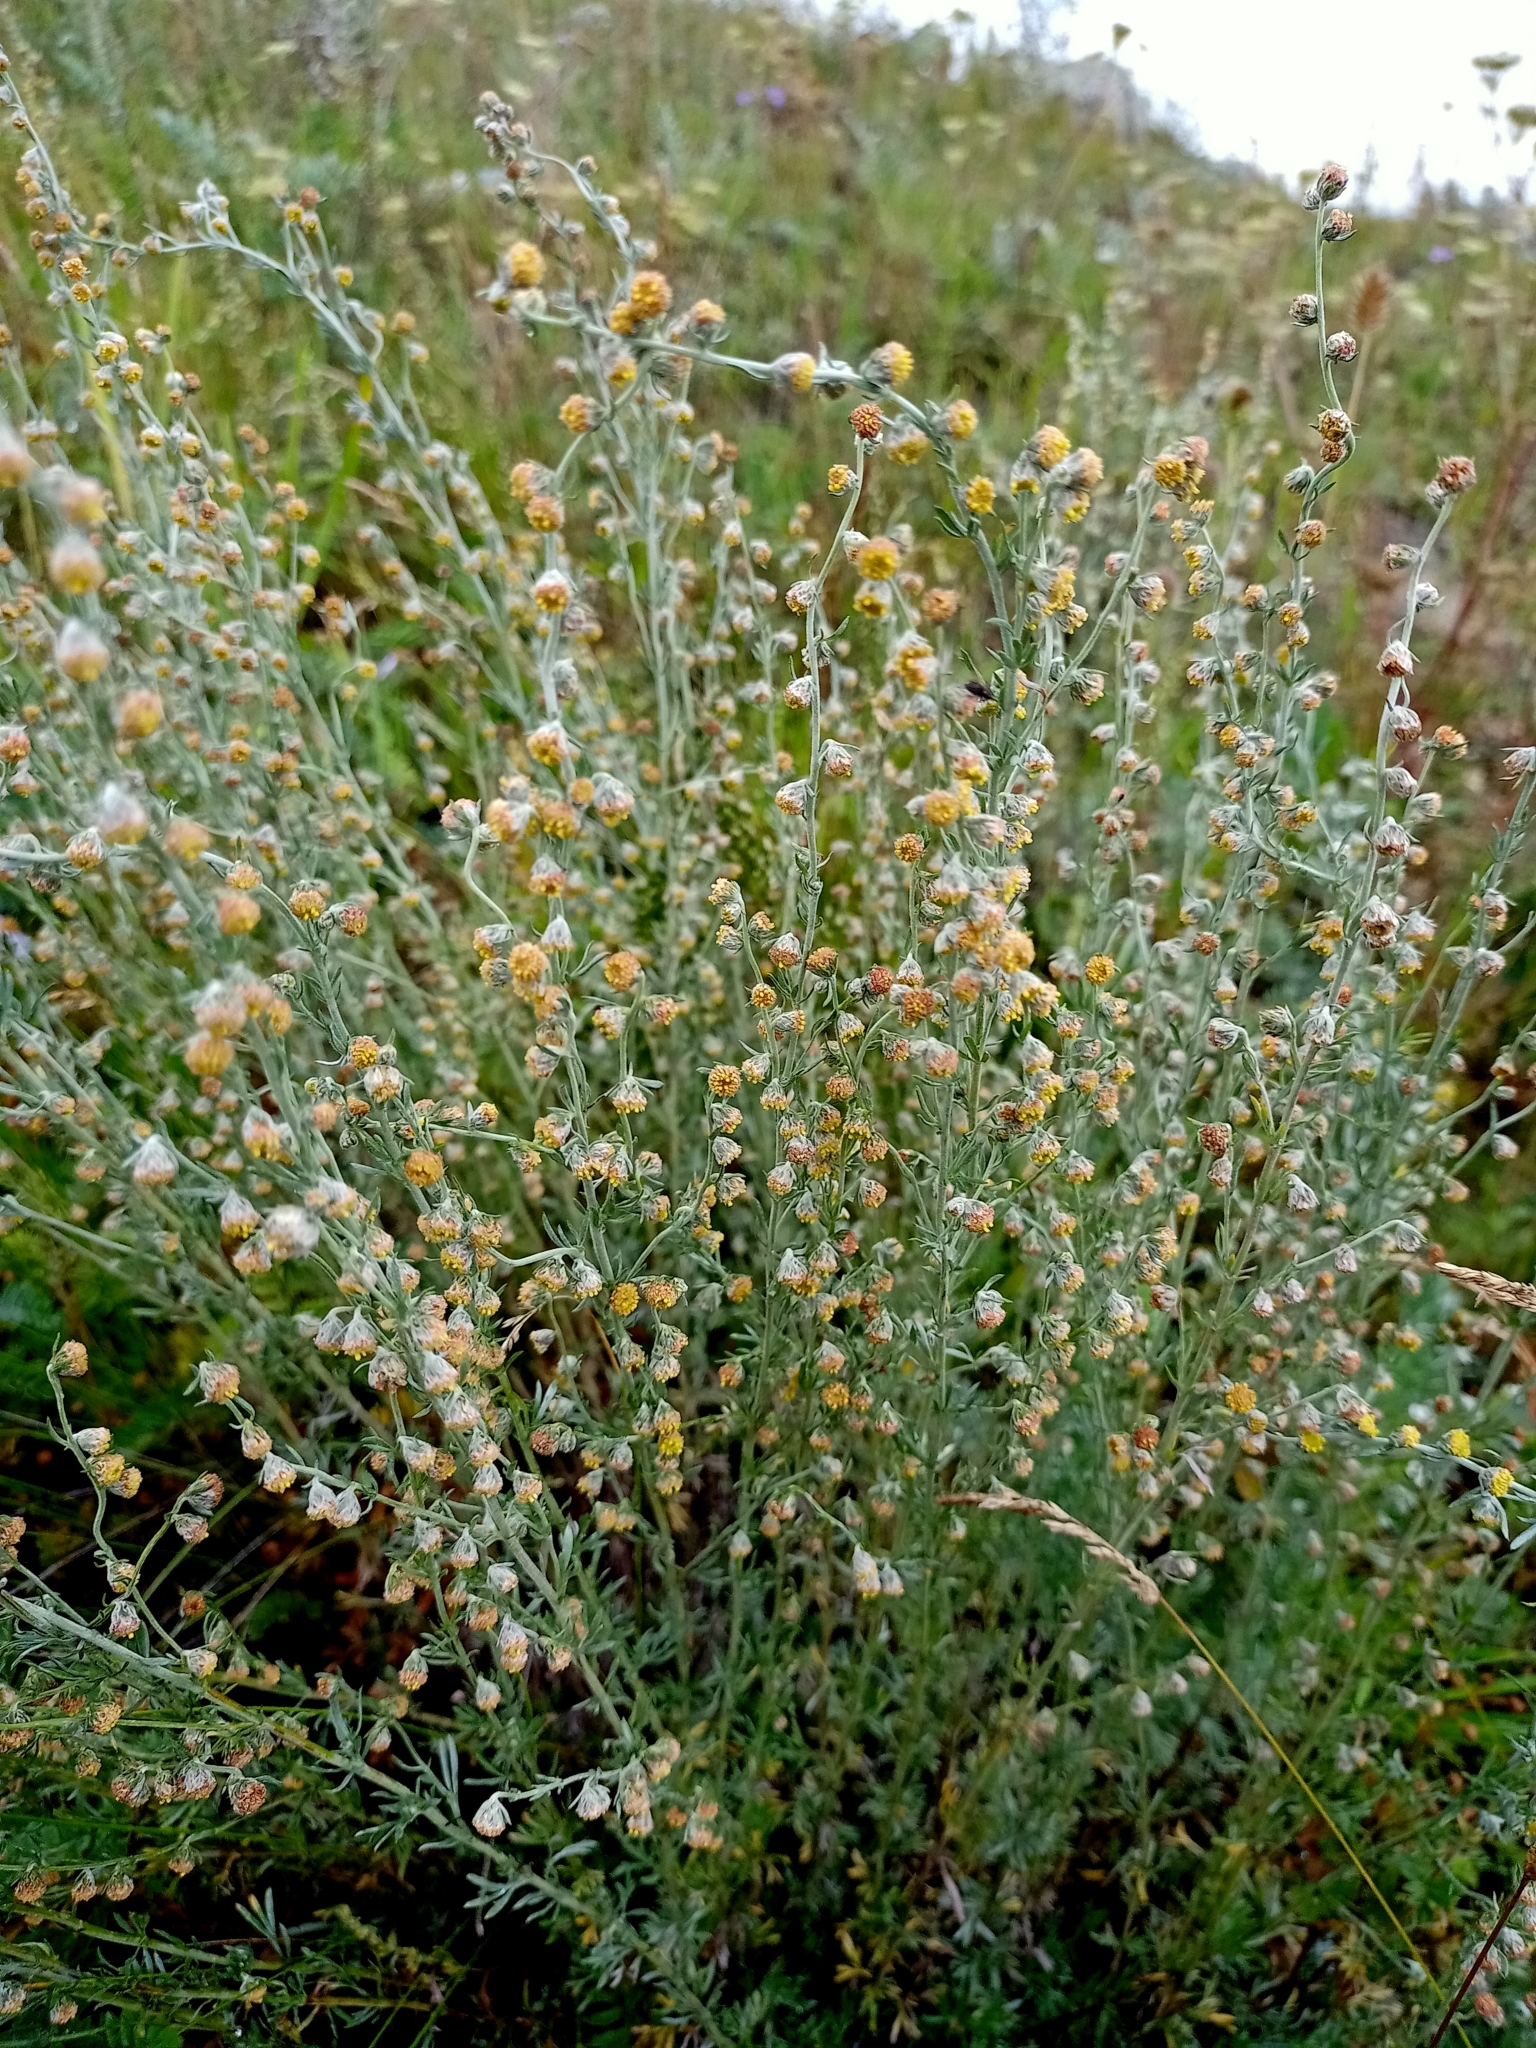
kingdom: Plantae
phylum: Tracheophyta
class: Magnoliopsida
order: Asterales
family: Asteraceae
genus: Artemisia
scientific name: Artemisia frigida
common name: Prairie sagewort
